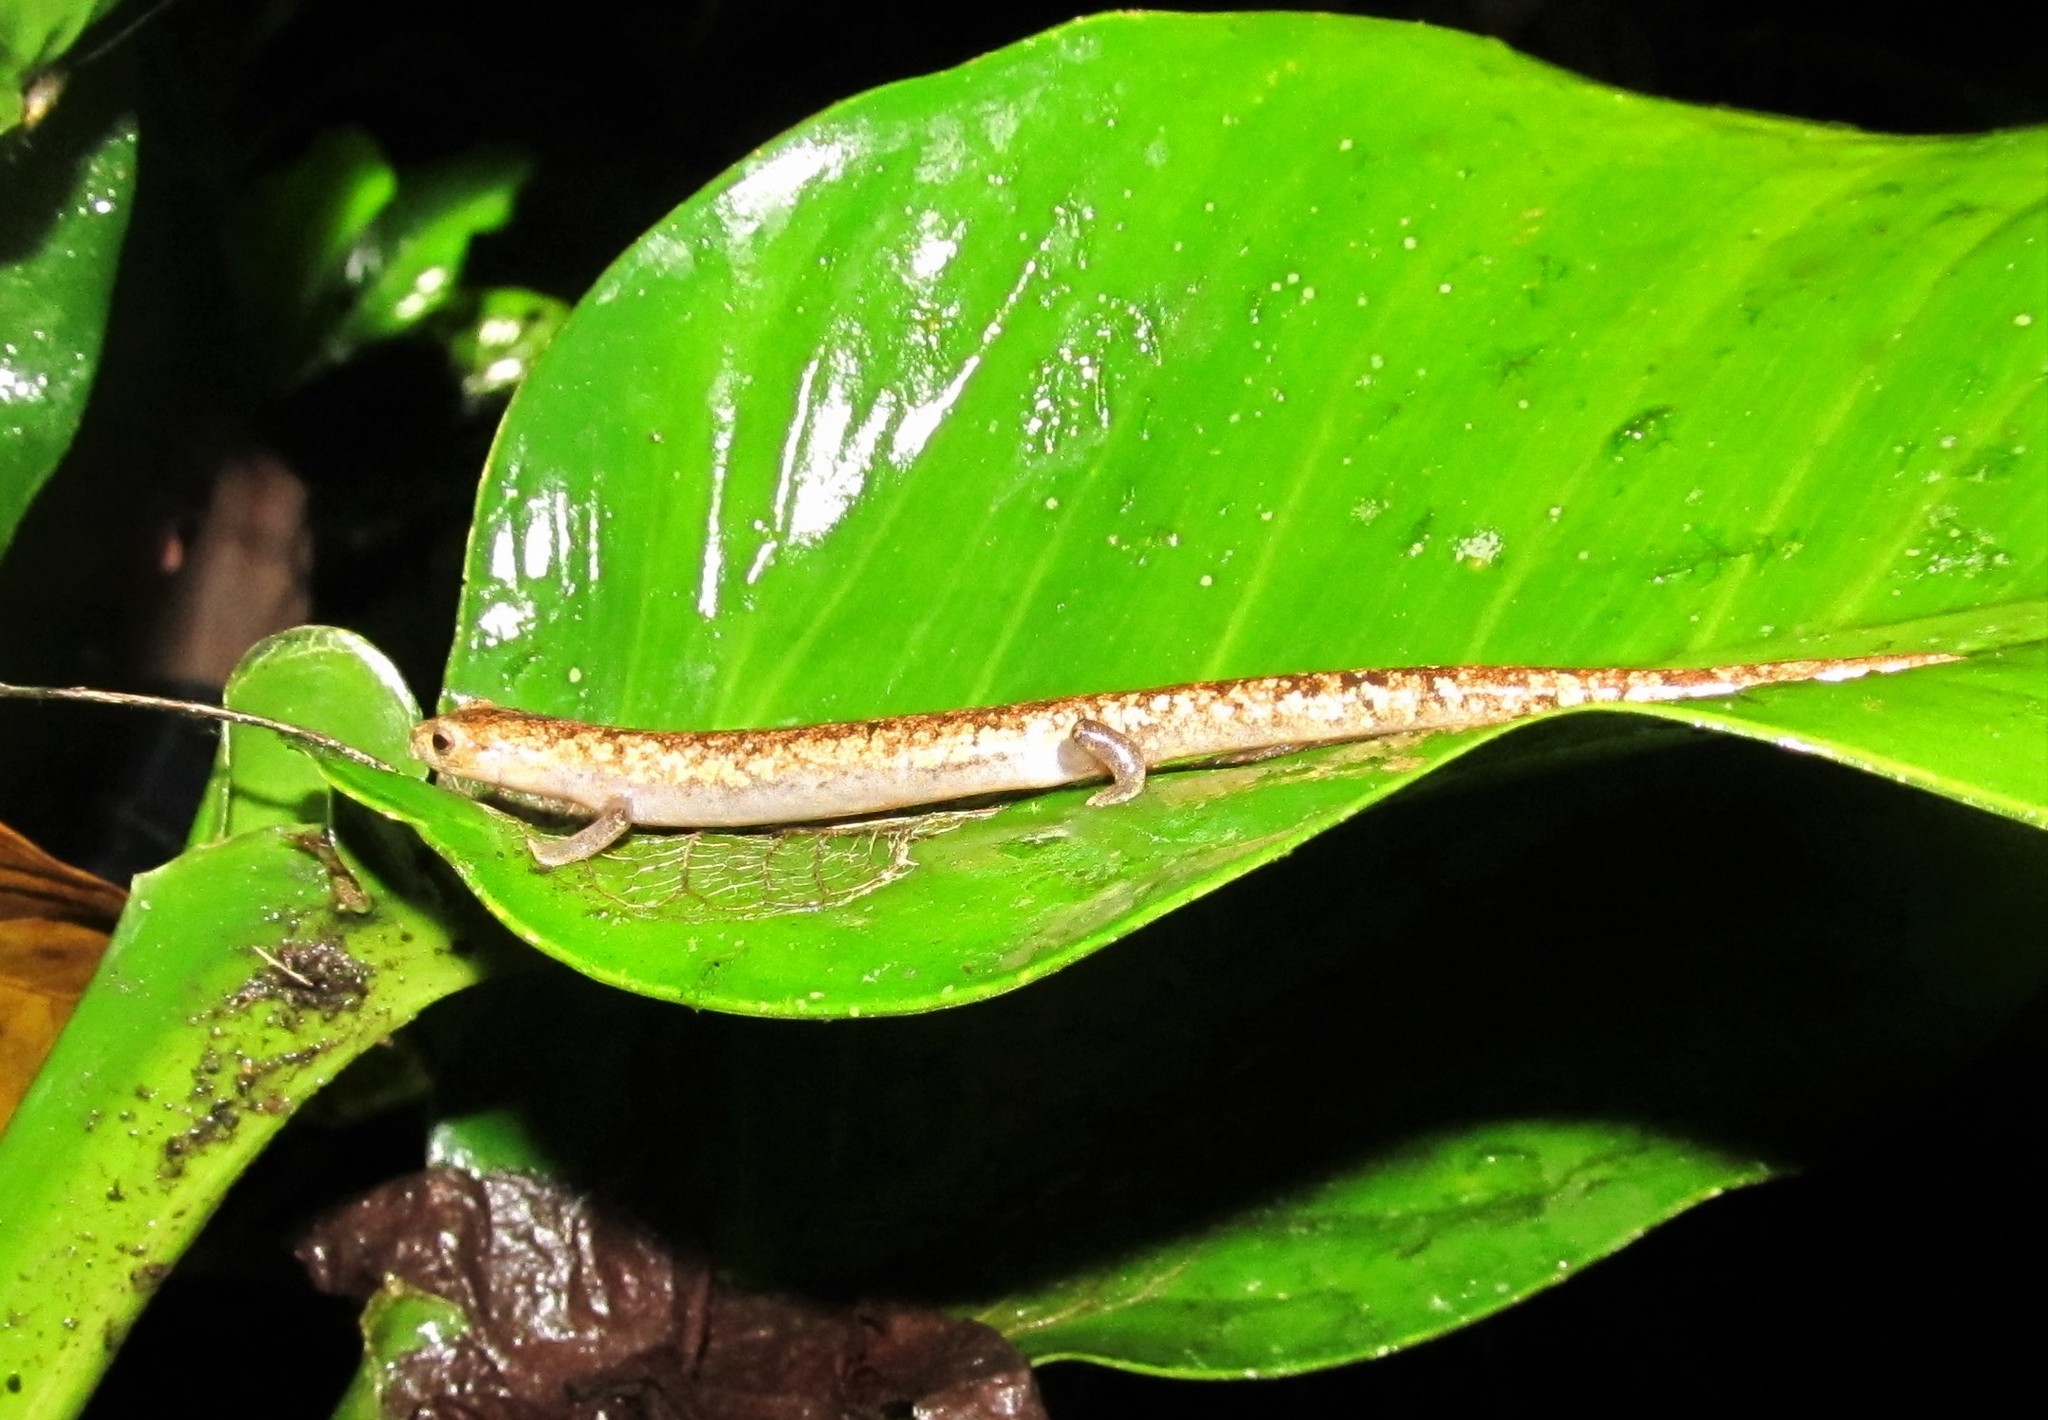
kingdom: Animalia
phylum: Chordata
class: Amphibia
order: Caudata
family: Plethodontidae
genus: Bolitoglossa
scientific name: Bolitoglossa lignicolor
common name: Camron mushroomtongue salamander
